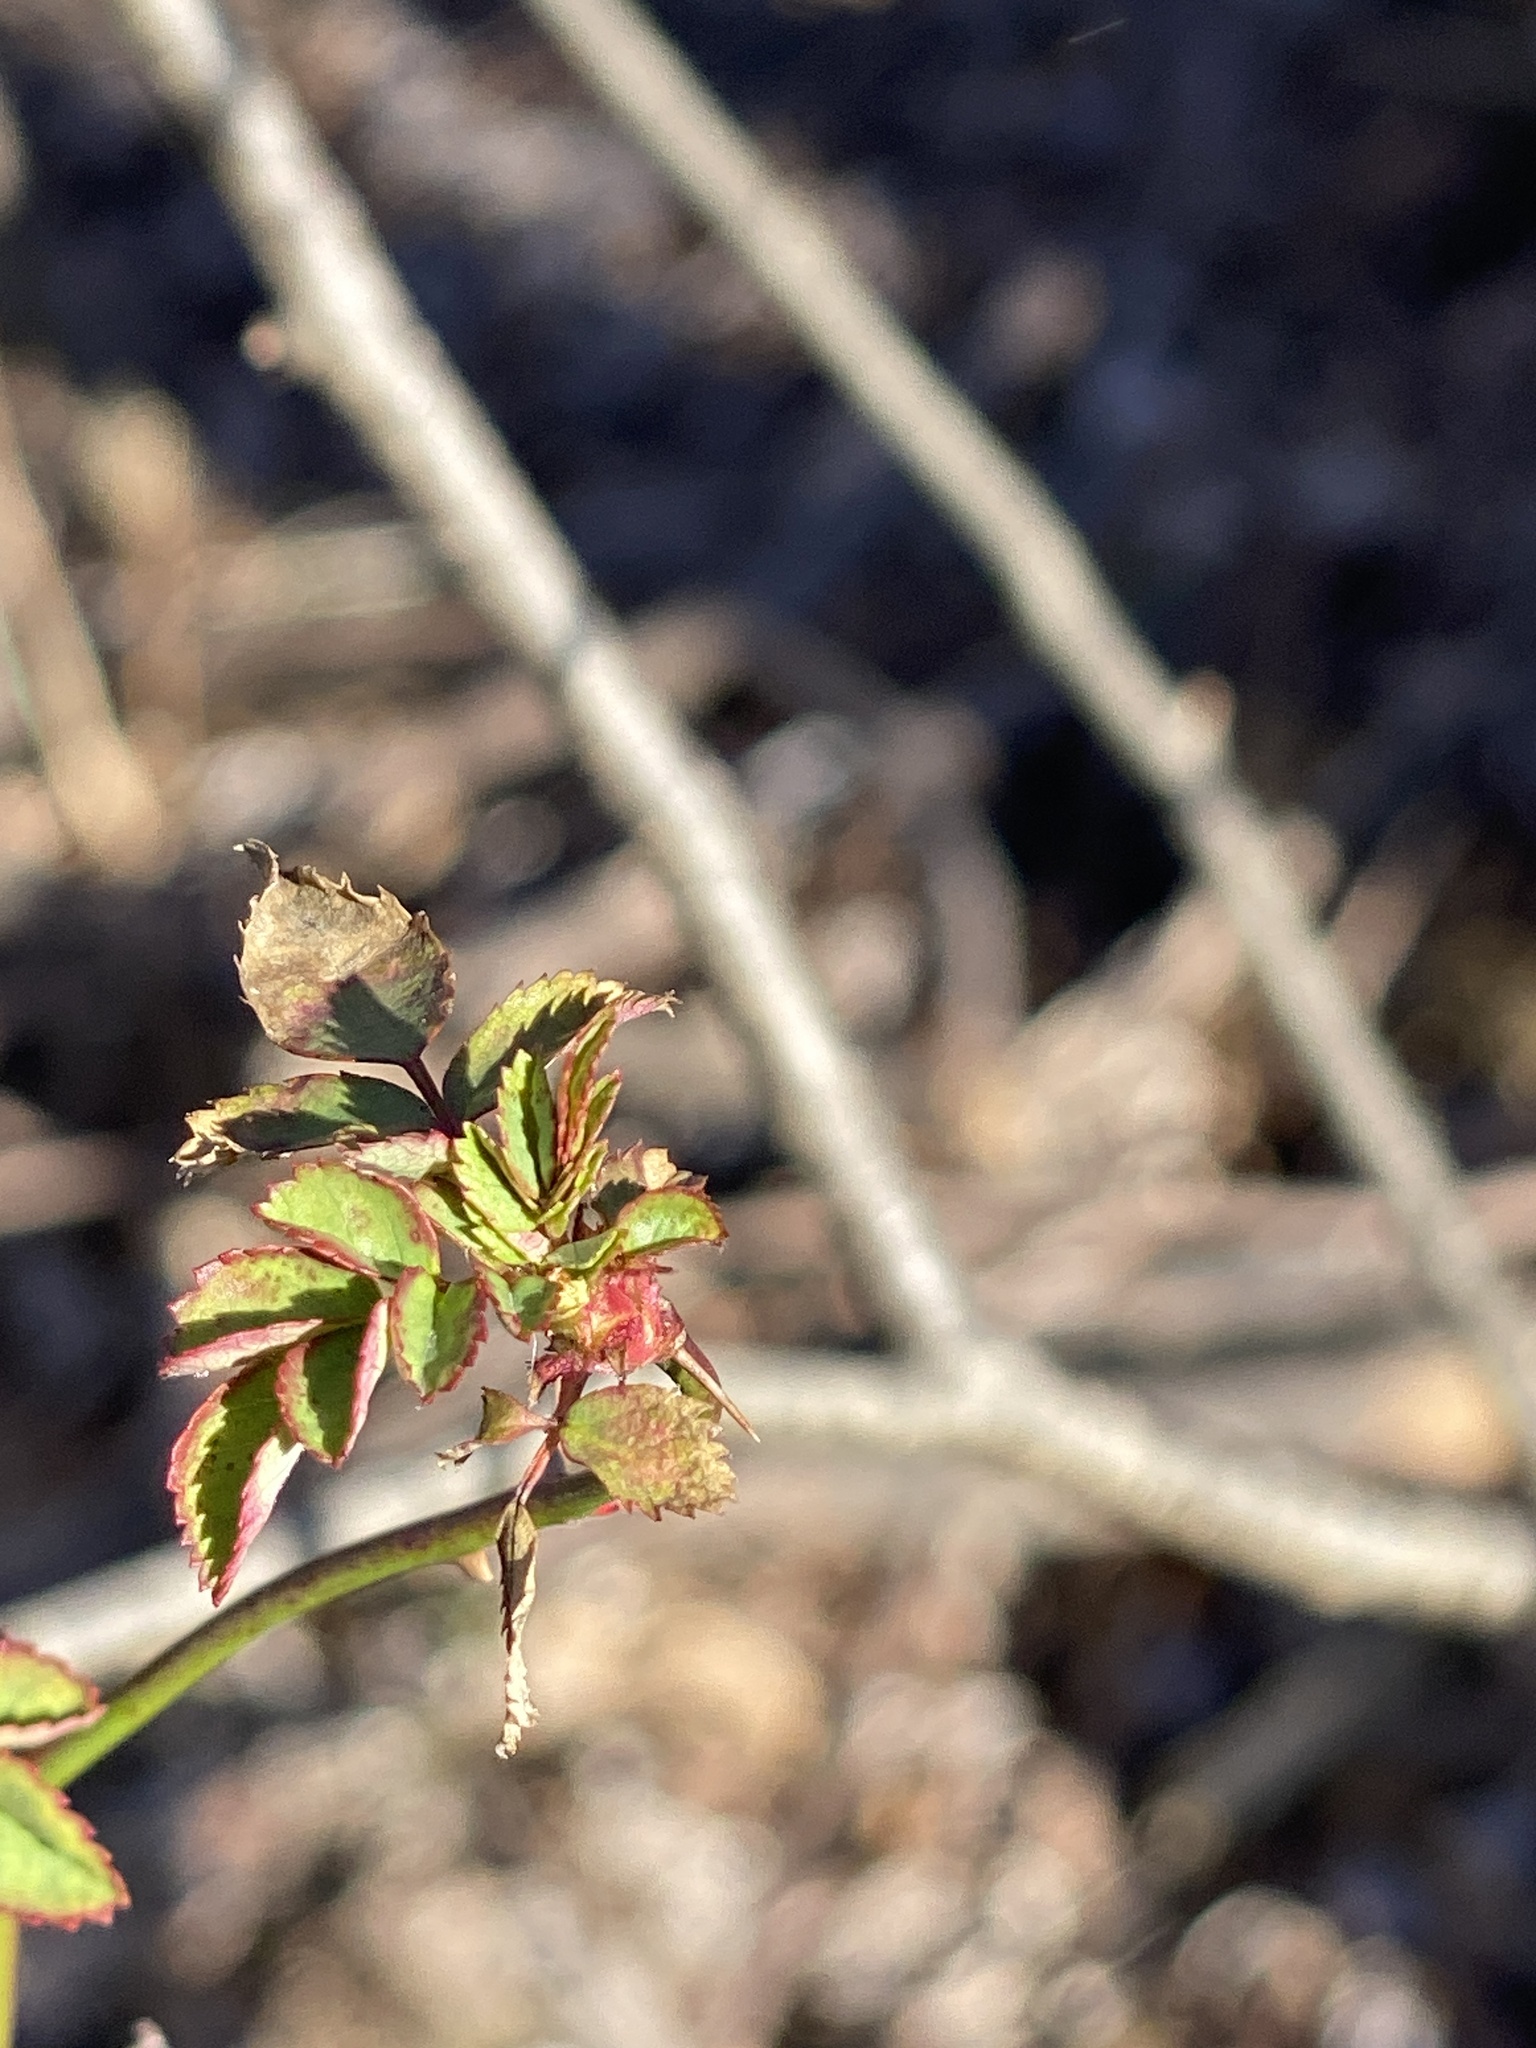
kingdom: Plantae
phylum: Tracheophyta
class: Magnoliopsida
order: Rosales
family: Rosaceae
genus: Rosa
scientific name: Rosa multiflora
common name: Multiflora rose
